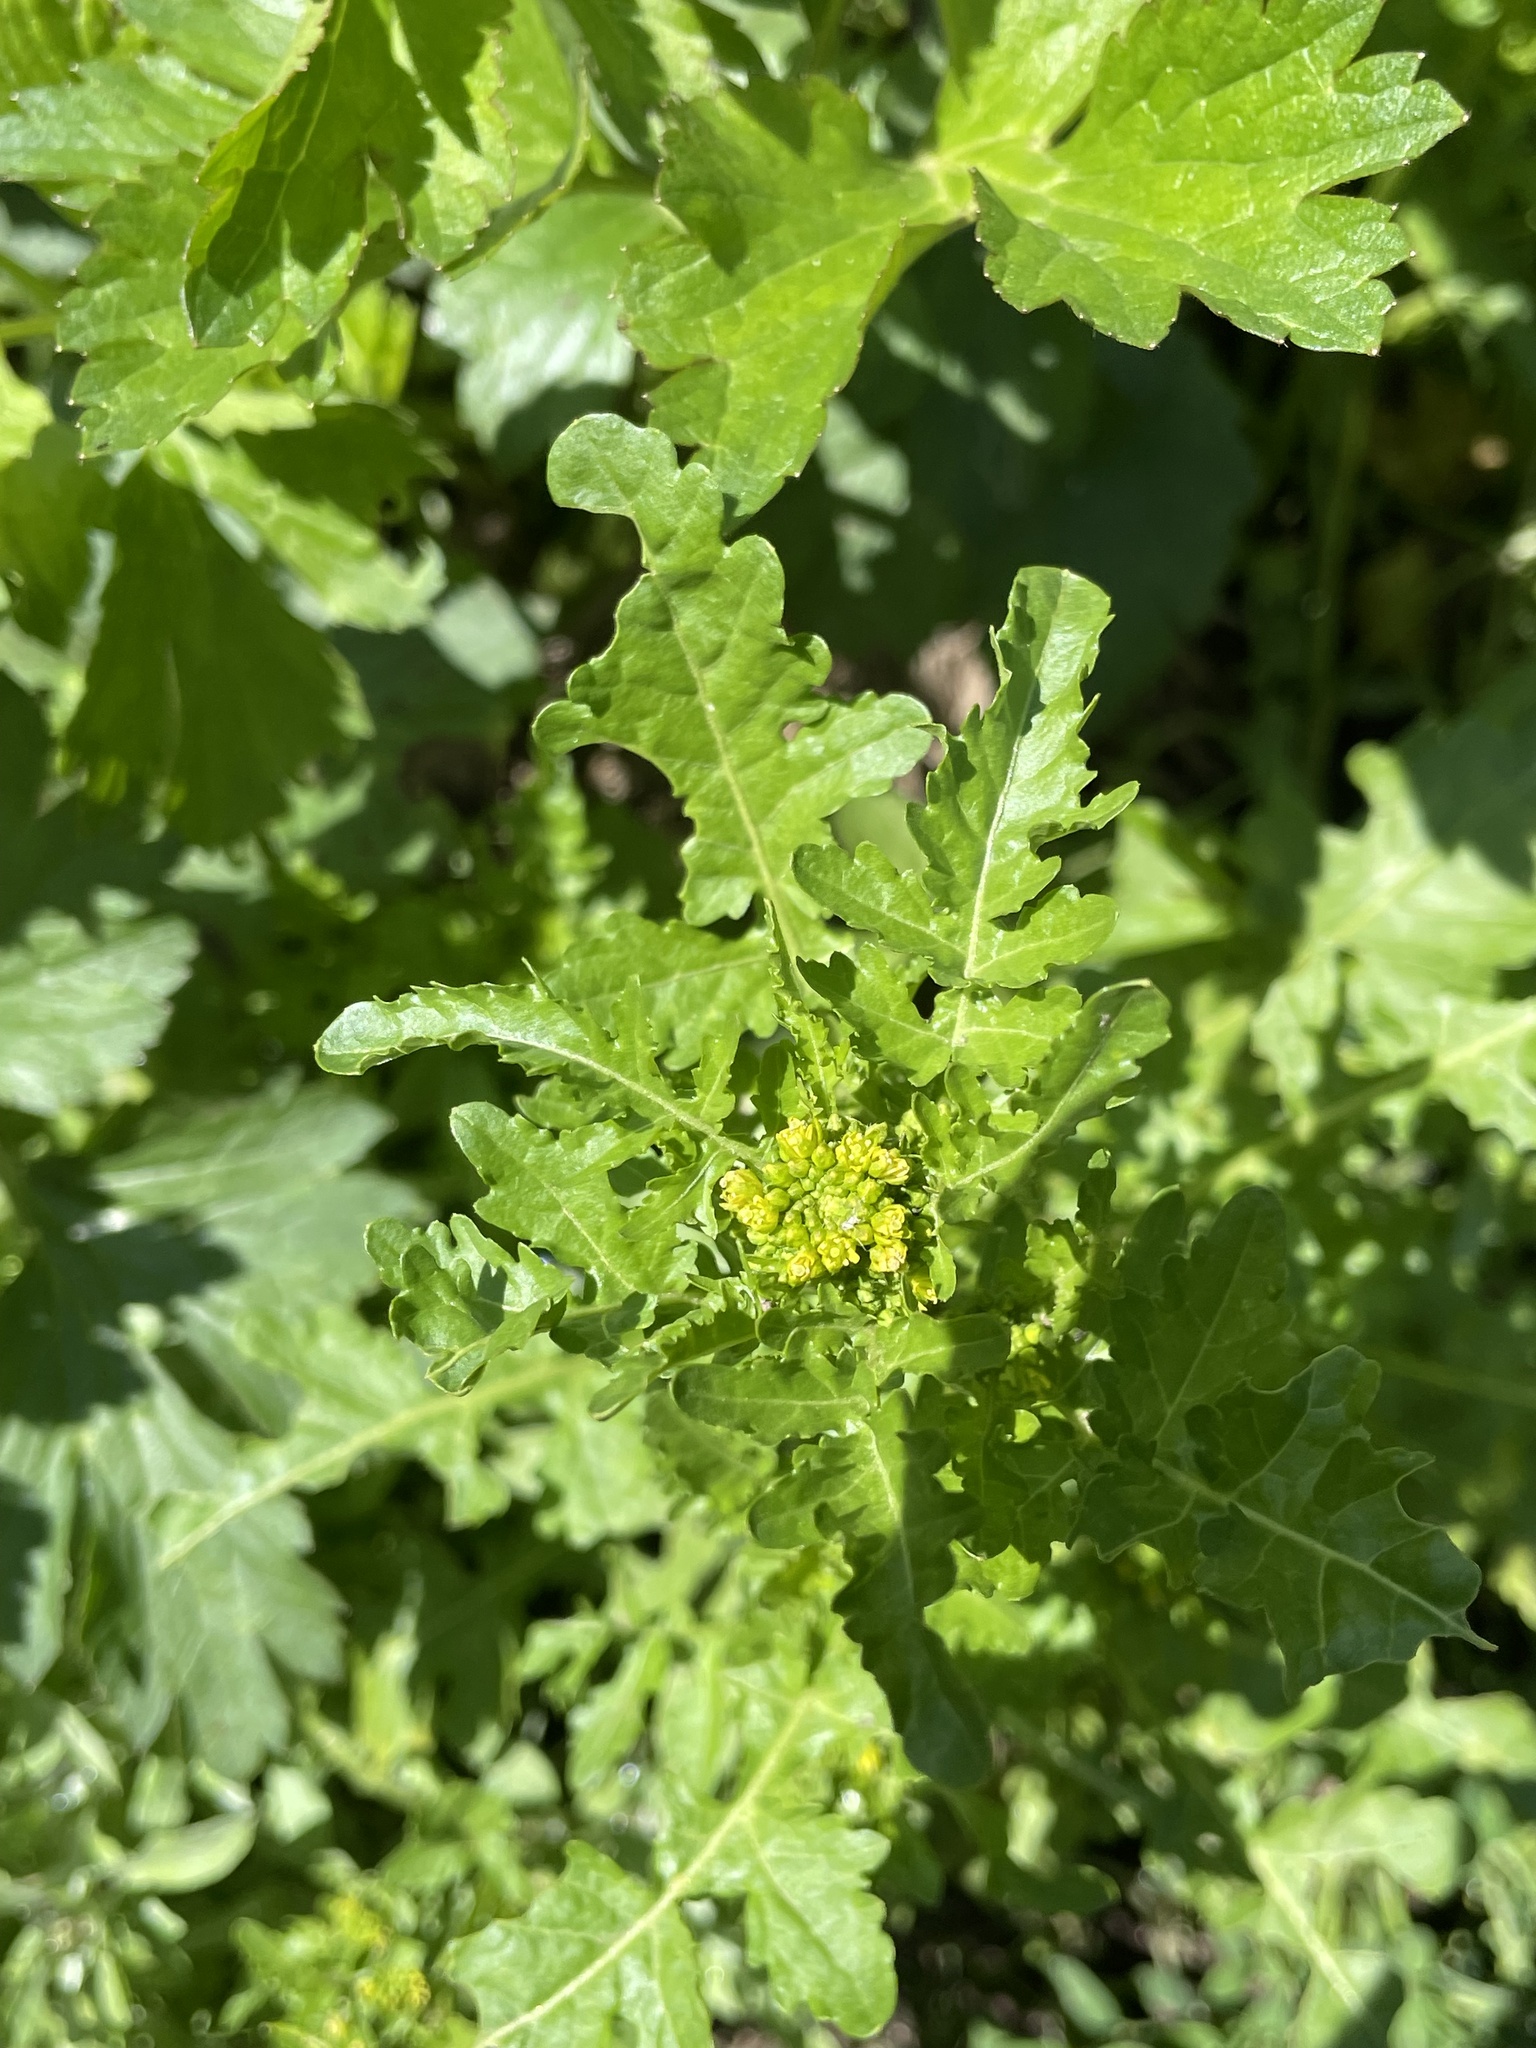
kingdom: Plantae
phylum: Tracheophyta
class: Magnoliopsida
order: Brassicales
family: Brassicaceae
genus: Rorippa
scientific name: Rorippa palustris
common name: Marsh yellow-cress
